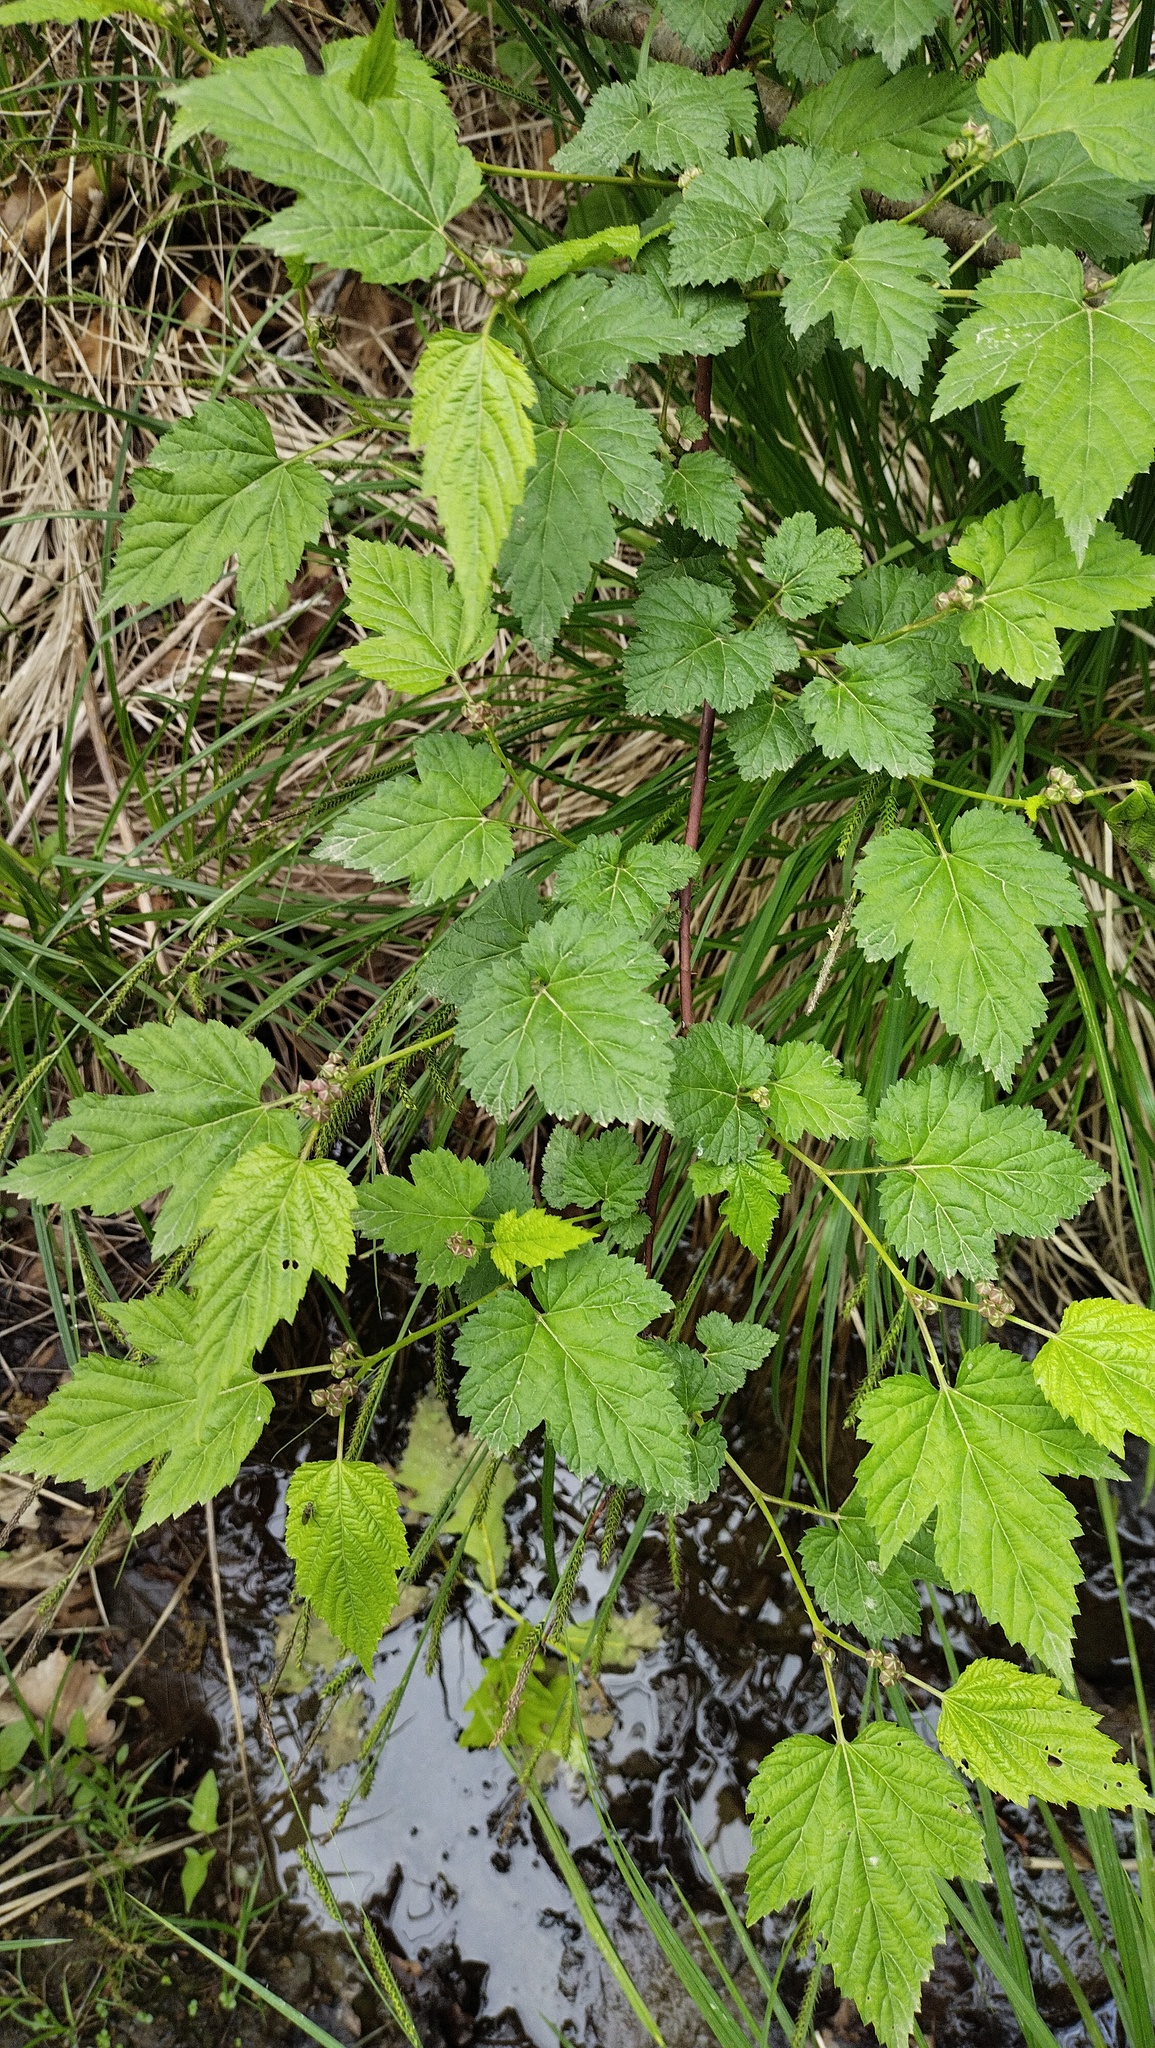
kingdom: Plantae
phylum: Tracheophyta
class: Magnoliopsida
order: Rosales
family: Rosaceae
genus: Rubus
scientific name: Rubus crataegifolius
